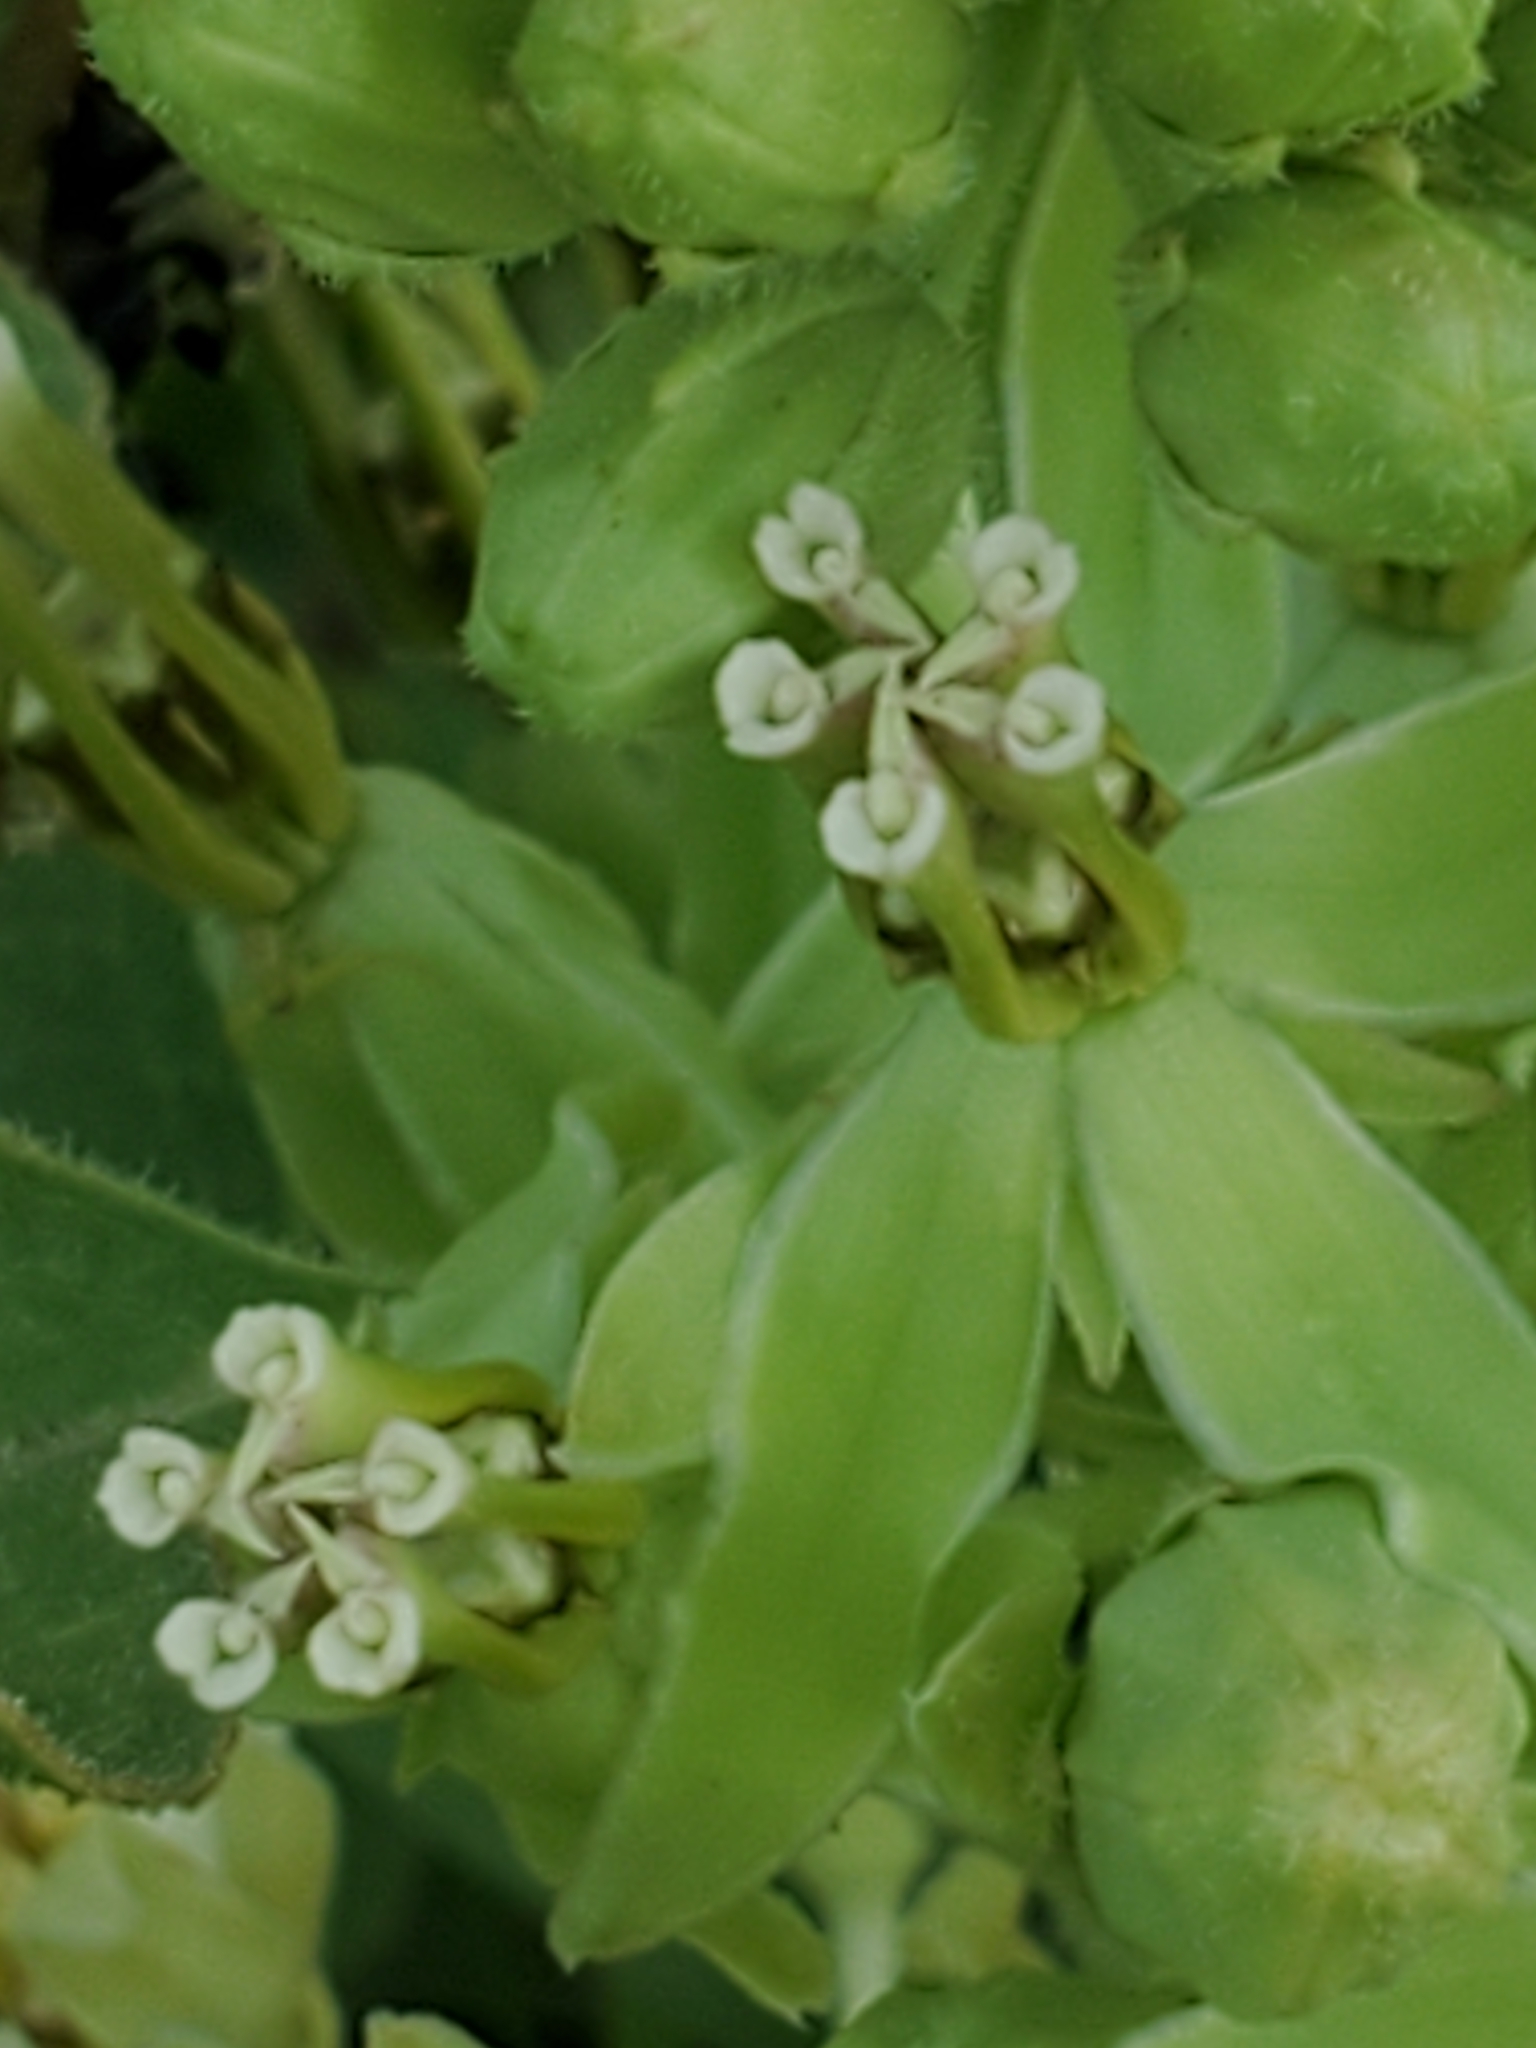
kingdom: Plantae
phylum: Tracheophyta
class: Magnoliopsida
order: Gentianales
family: Apocynaceae
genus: Asclepias
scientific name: Asclepias oenotheroides
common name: Zizotes milkweed
